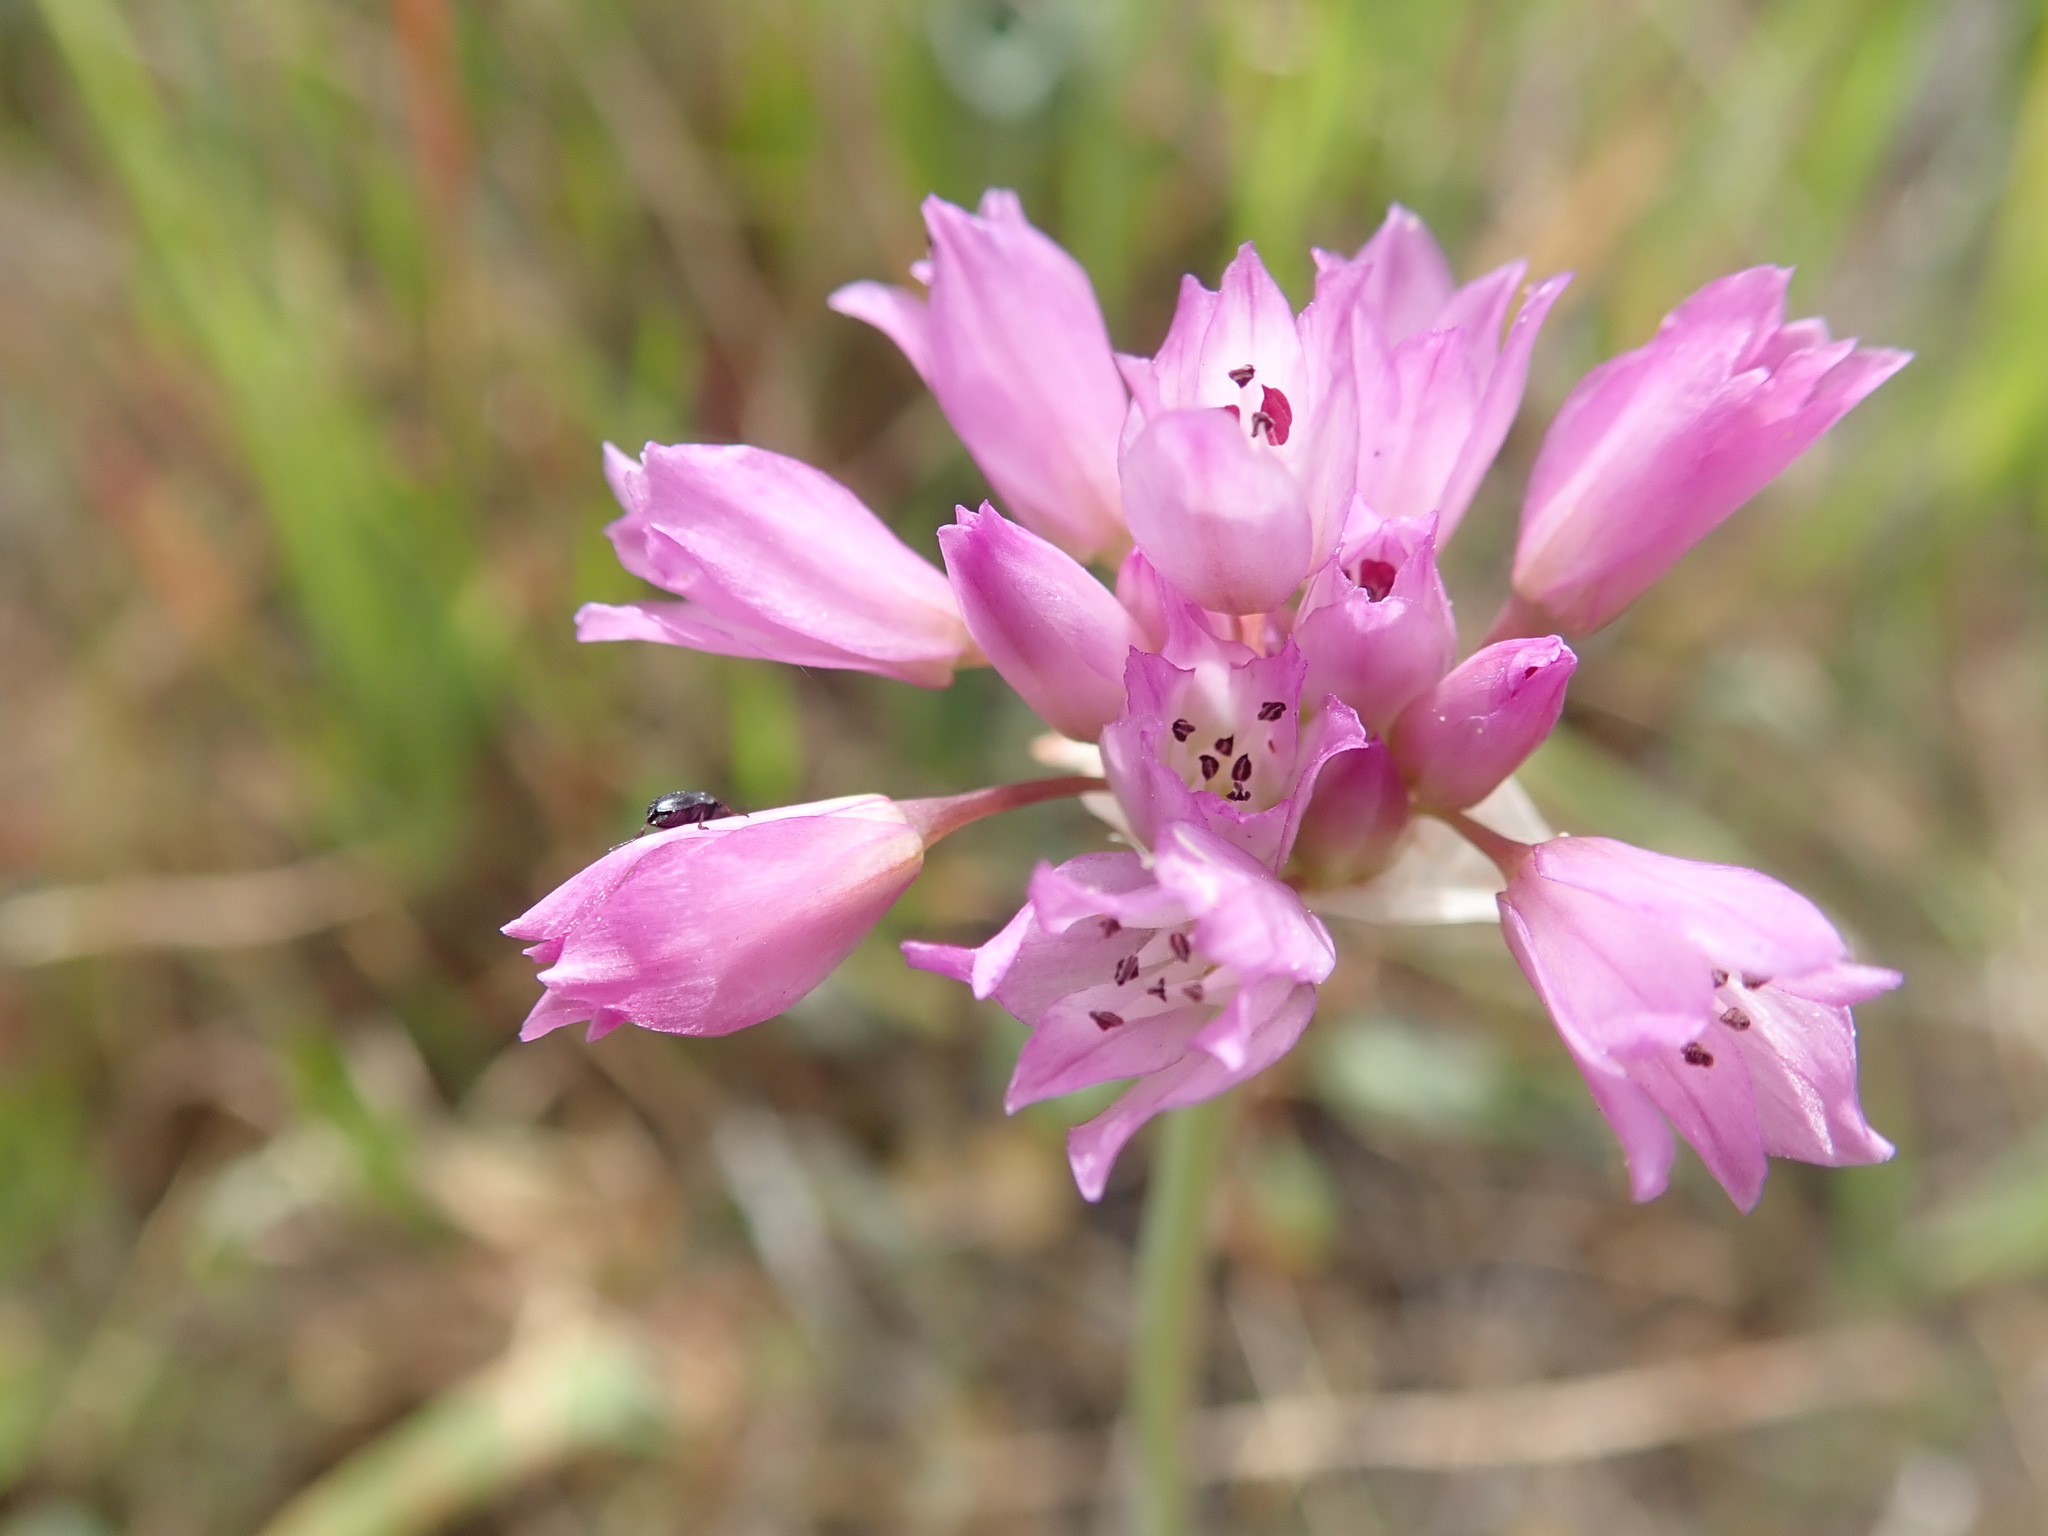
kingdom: Plantae
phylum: Tracheophyta
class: Liliopsida
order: Asparagales
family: Amaryllidaceae
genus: Allium
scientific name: Allium serra
